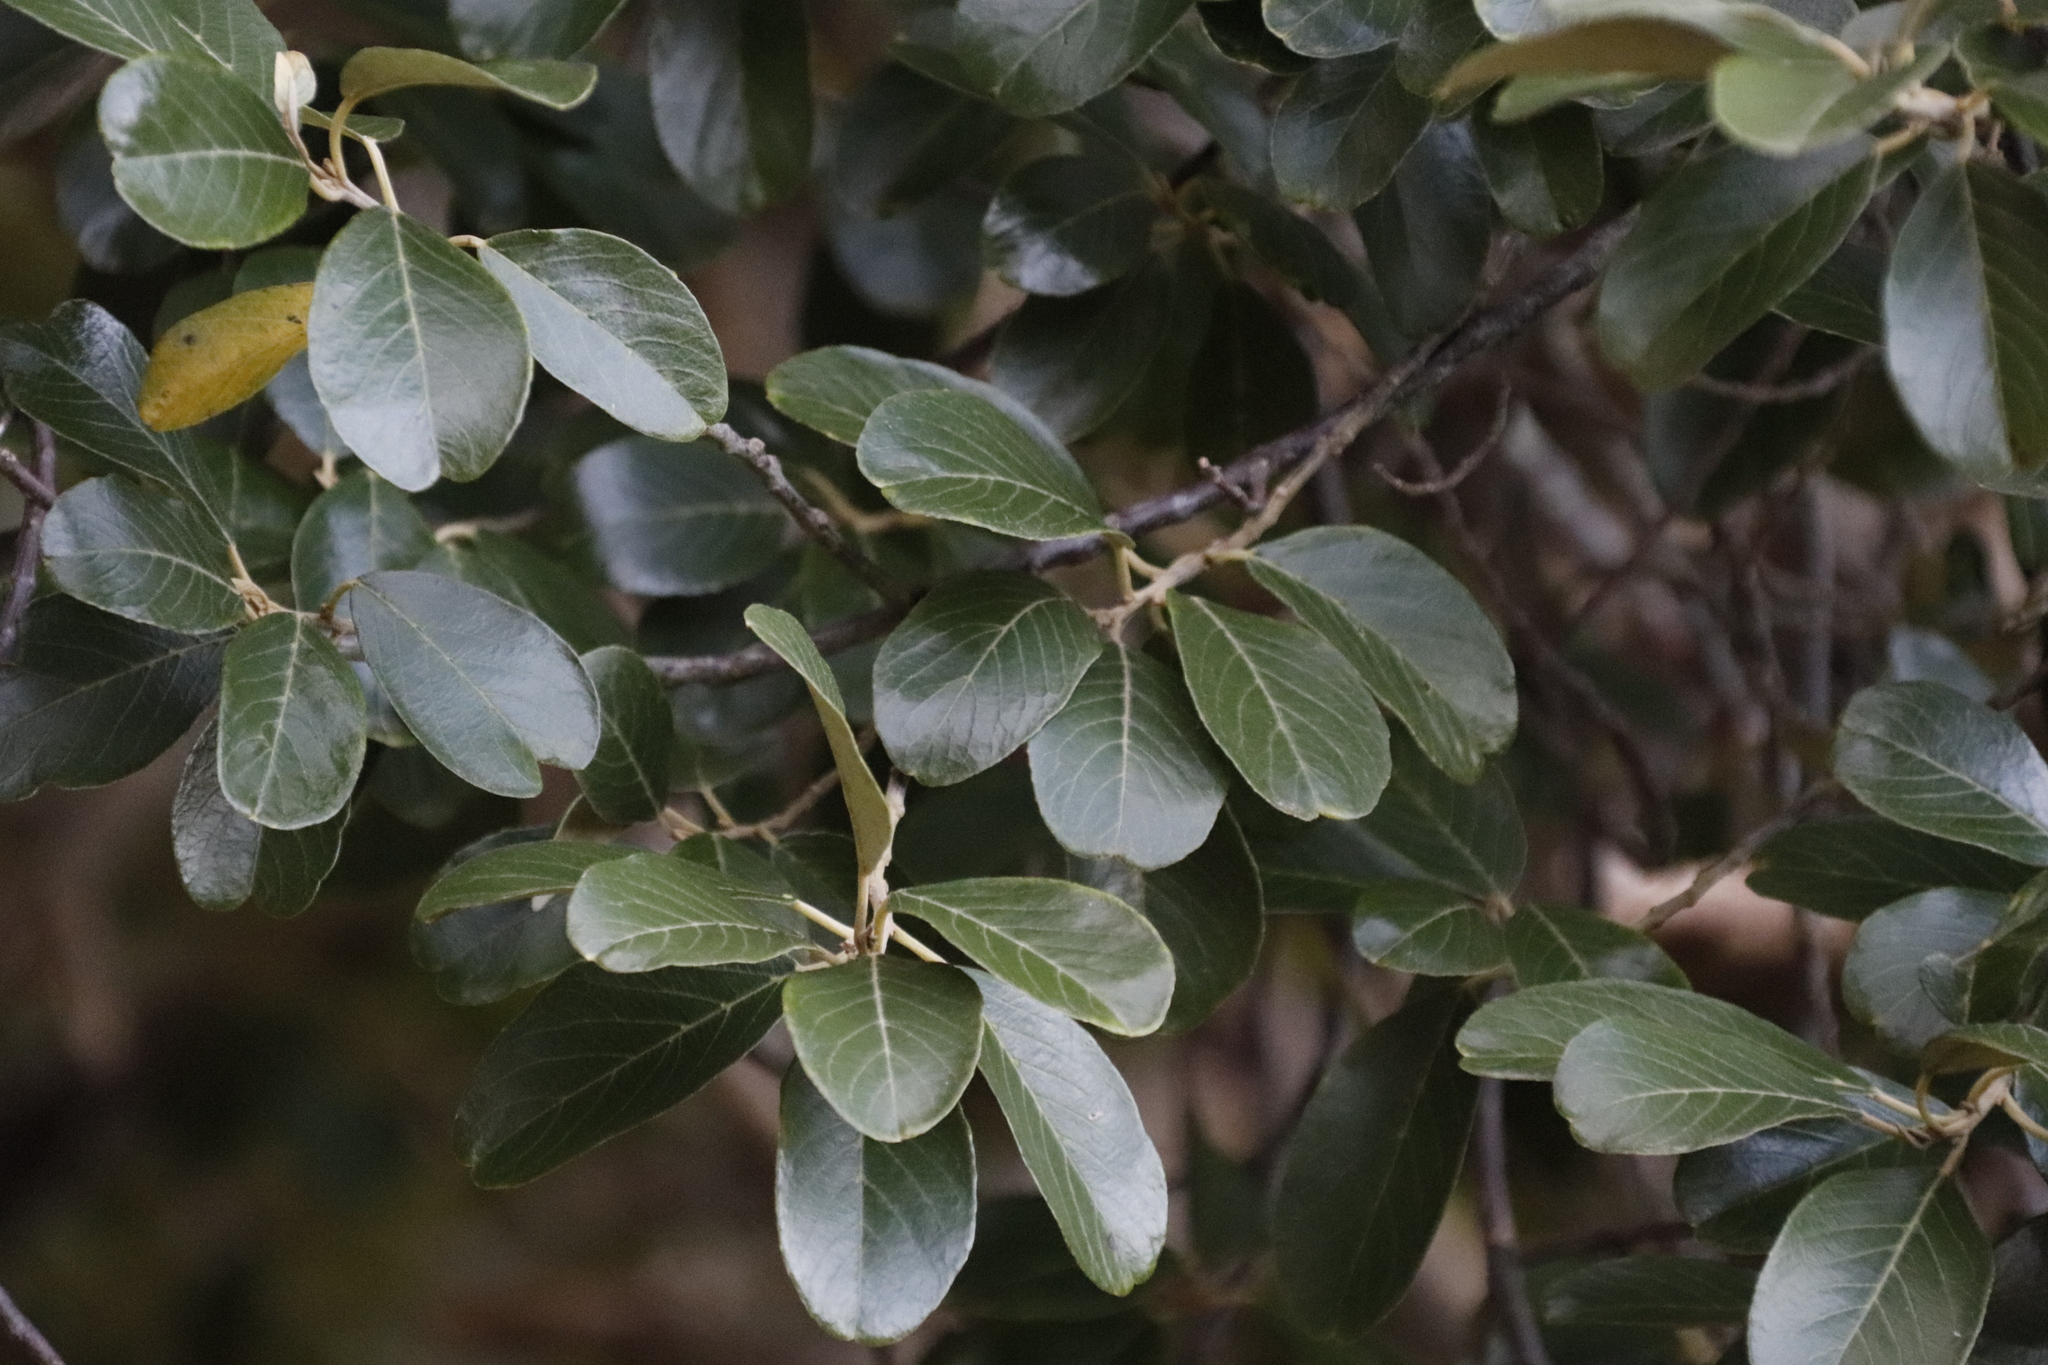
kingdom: Plantae
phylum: Tracheophyta
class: Magnoliopsida
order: Malpighiales
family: Achariaceae
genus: Kiggelaria
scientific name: Kiggelaria africana
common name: Wild peach
